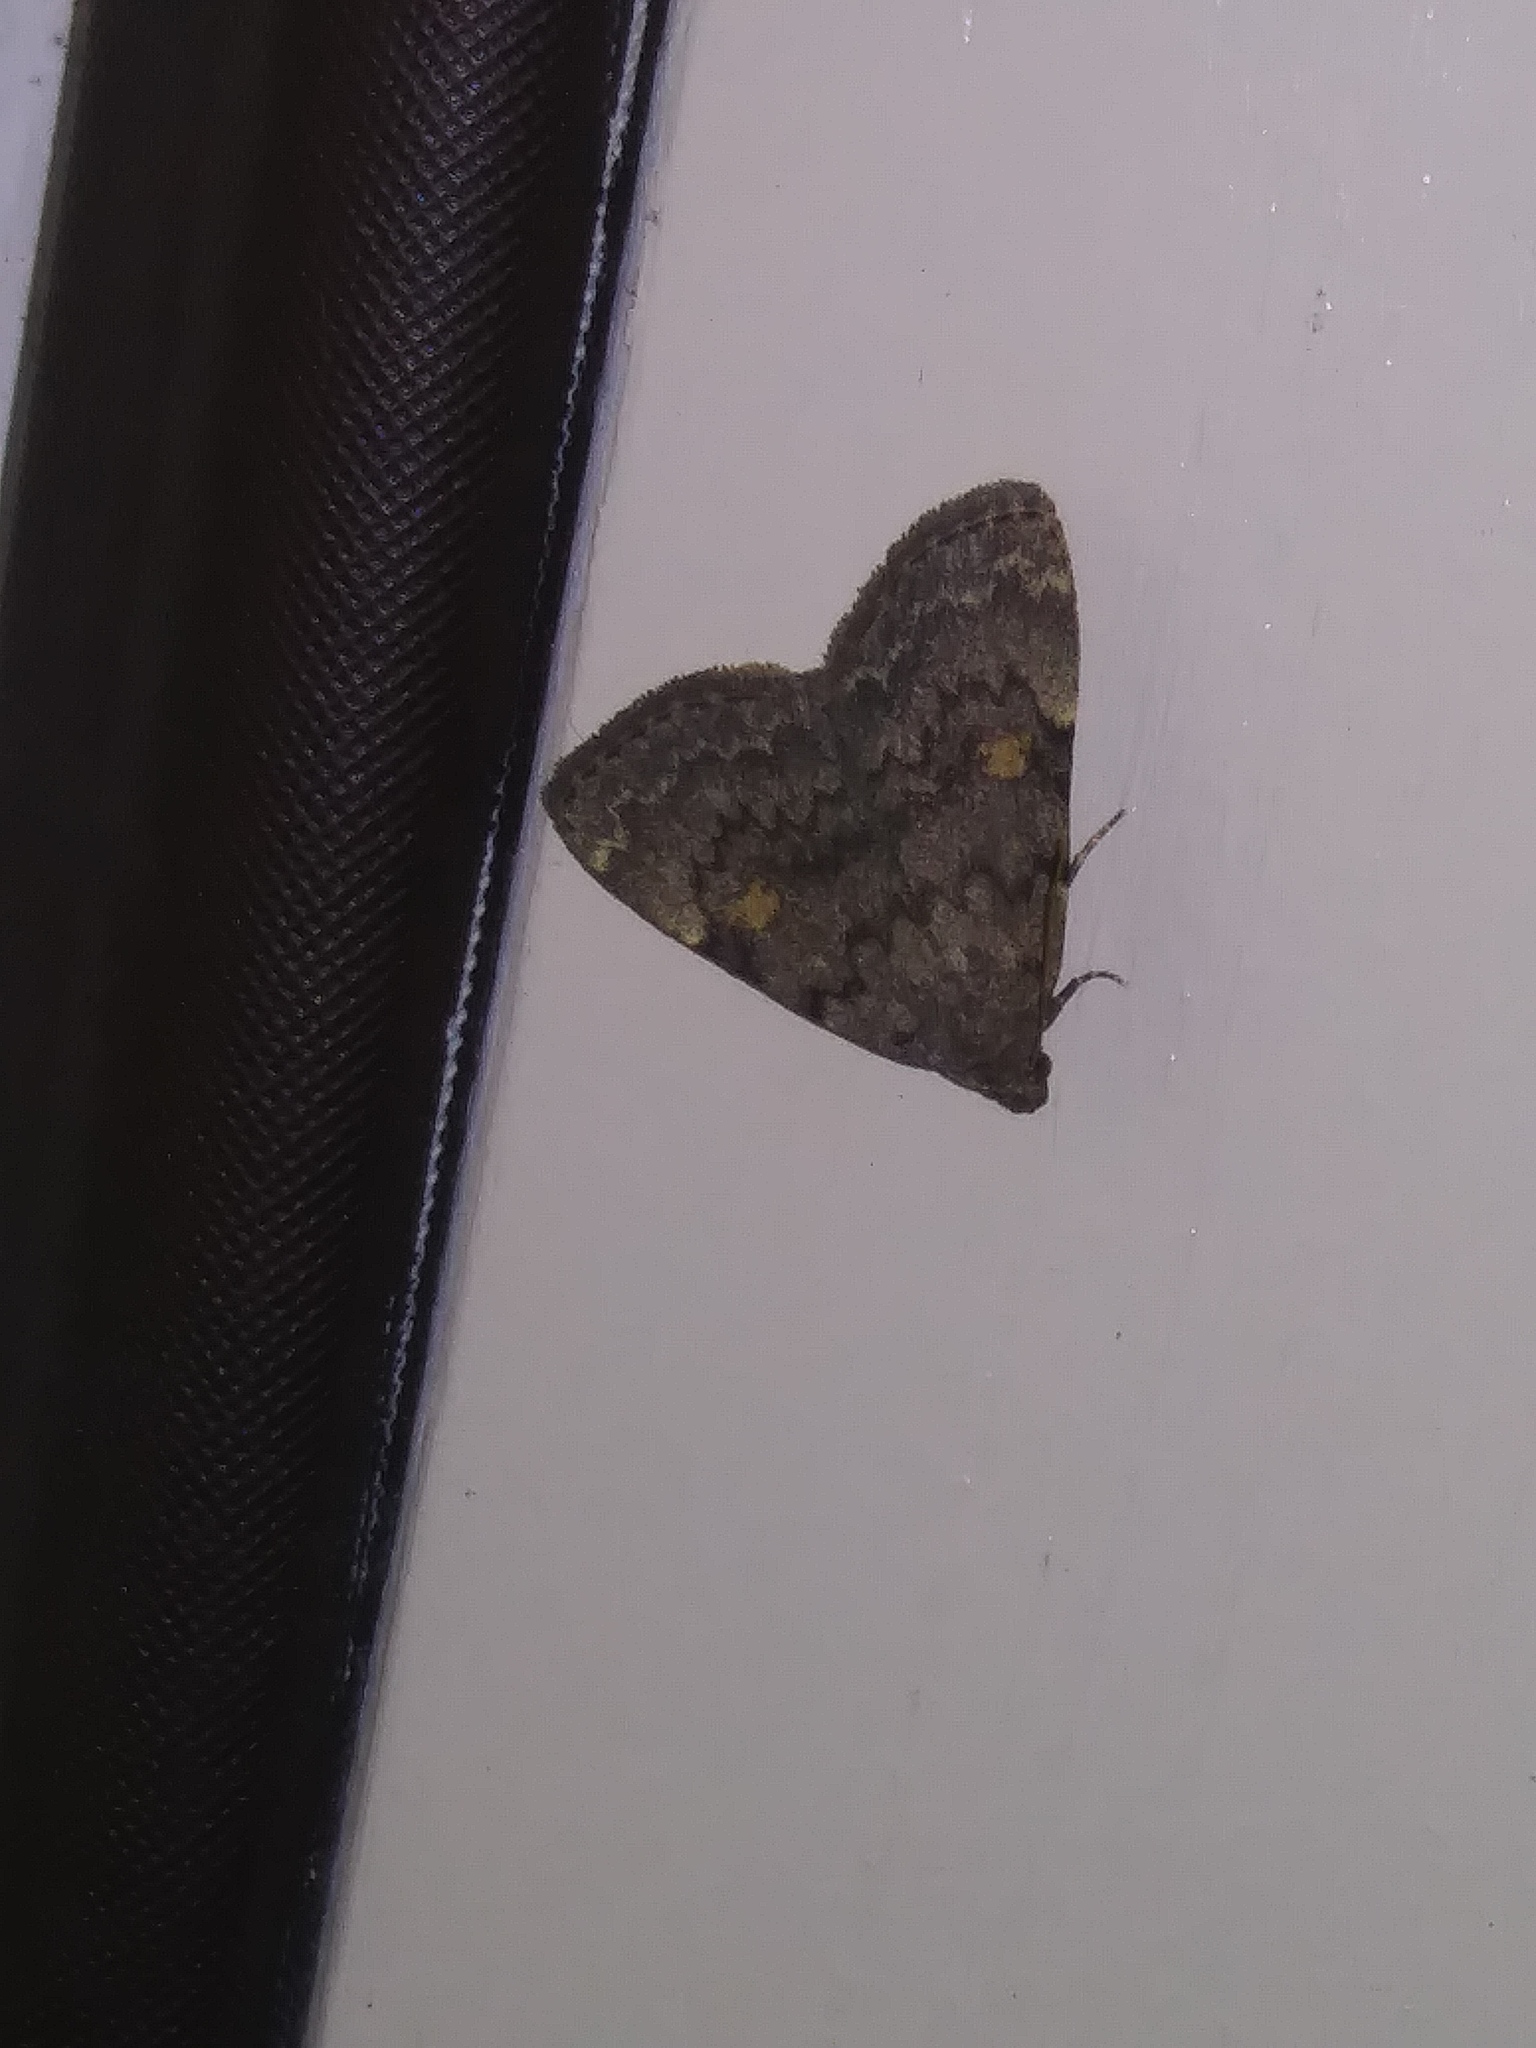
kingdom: Animalia
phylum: Arthropoda
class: Insecta
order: Lepidoptera
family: Erebidae
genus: Idia
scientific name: Idia aemula
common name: Common idia moth
